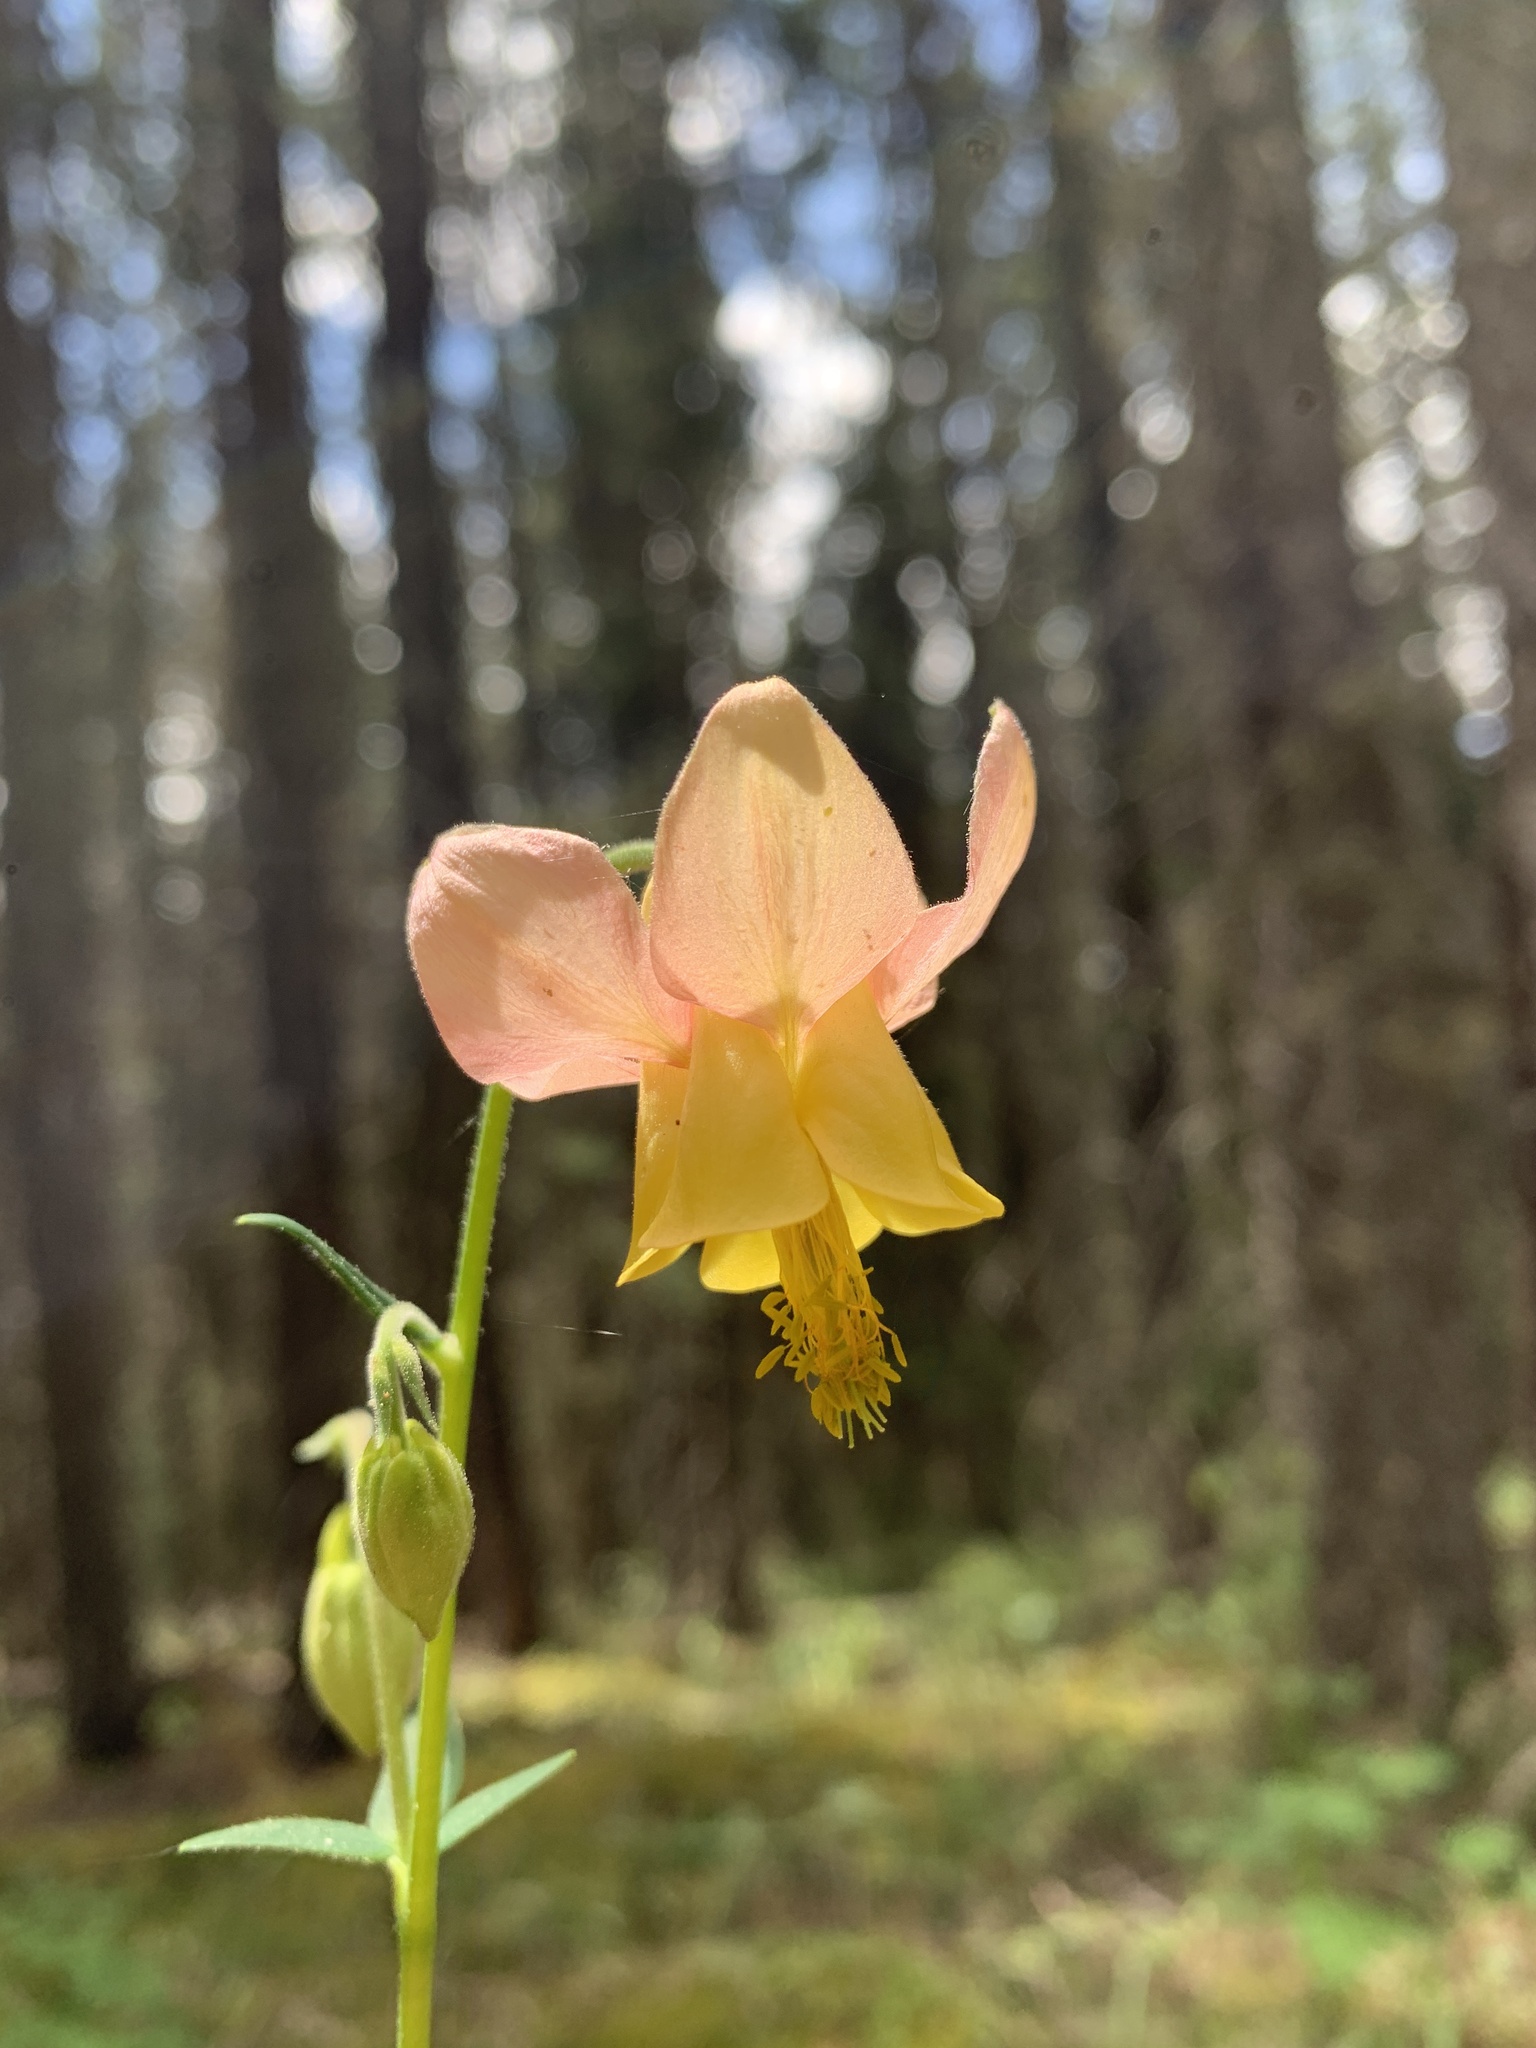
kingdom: Plantae
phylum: Tracheophyta
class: Magnoliopsida
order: Ranunculales
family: Ranunculaceae
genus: Aquilegia
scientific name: Aquilegia flavescens
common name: Yellow columbine
